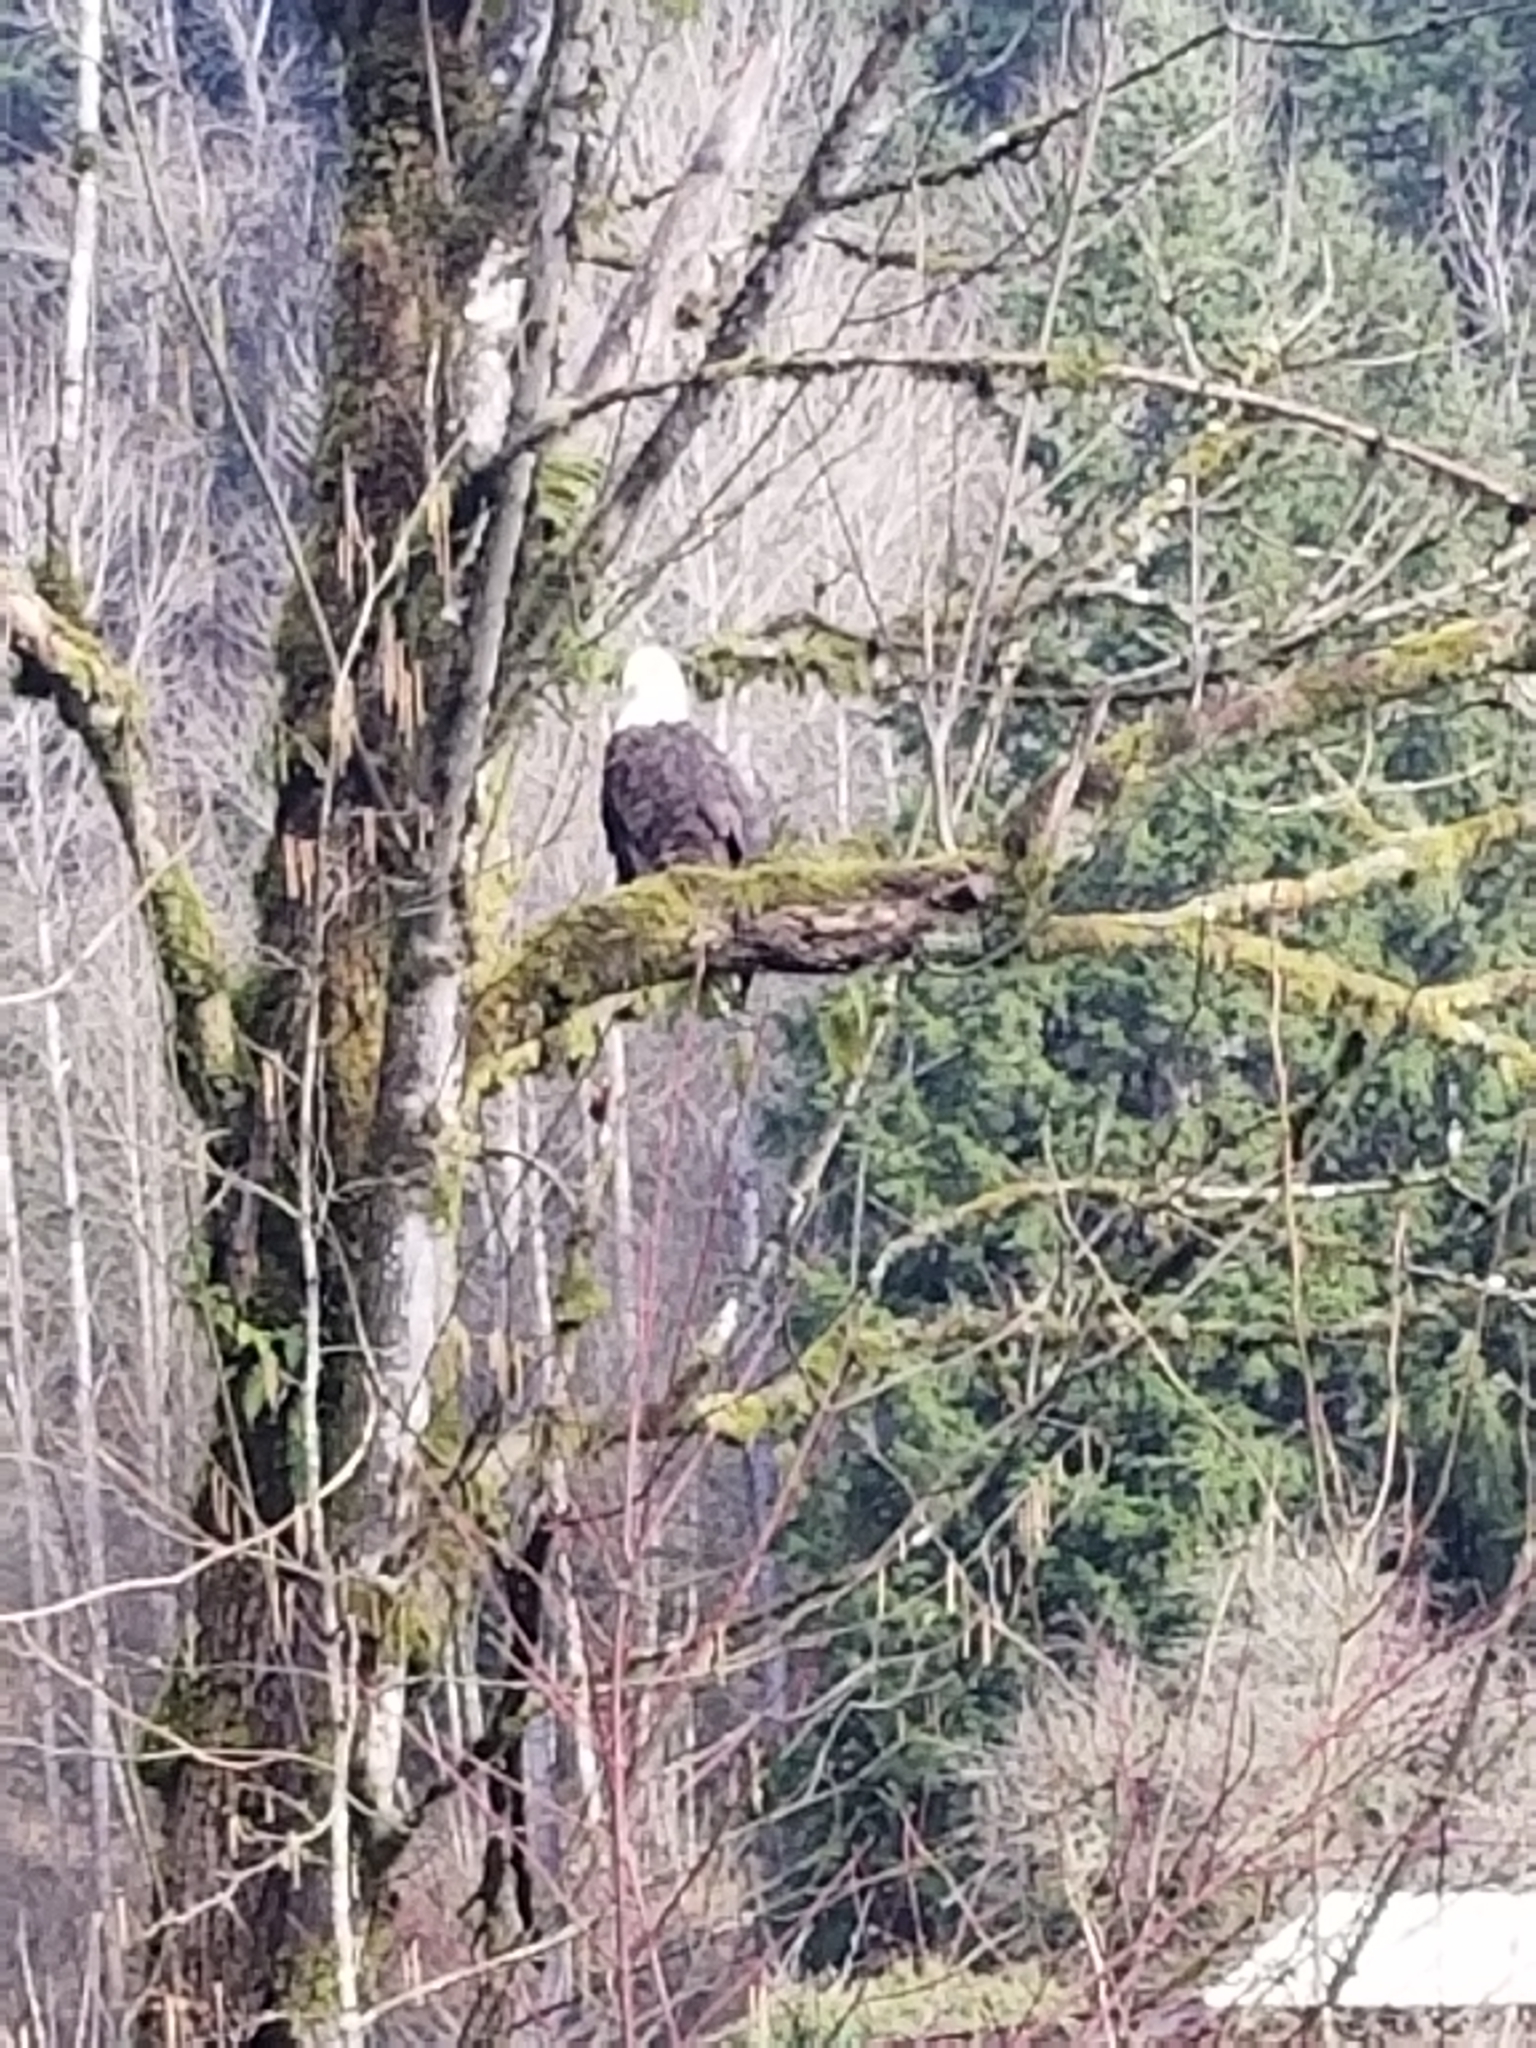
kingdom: Animalia
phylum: Chordata
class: Aves
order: Accipitriformes
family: Accipitridae
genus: Haliaeetus
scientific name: Haliaeetus leucocephalus
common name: Bald eagle
